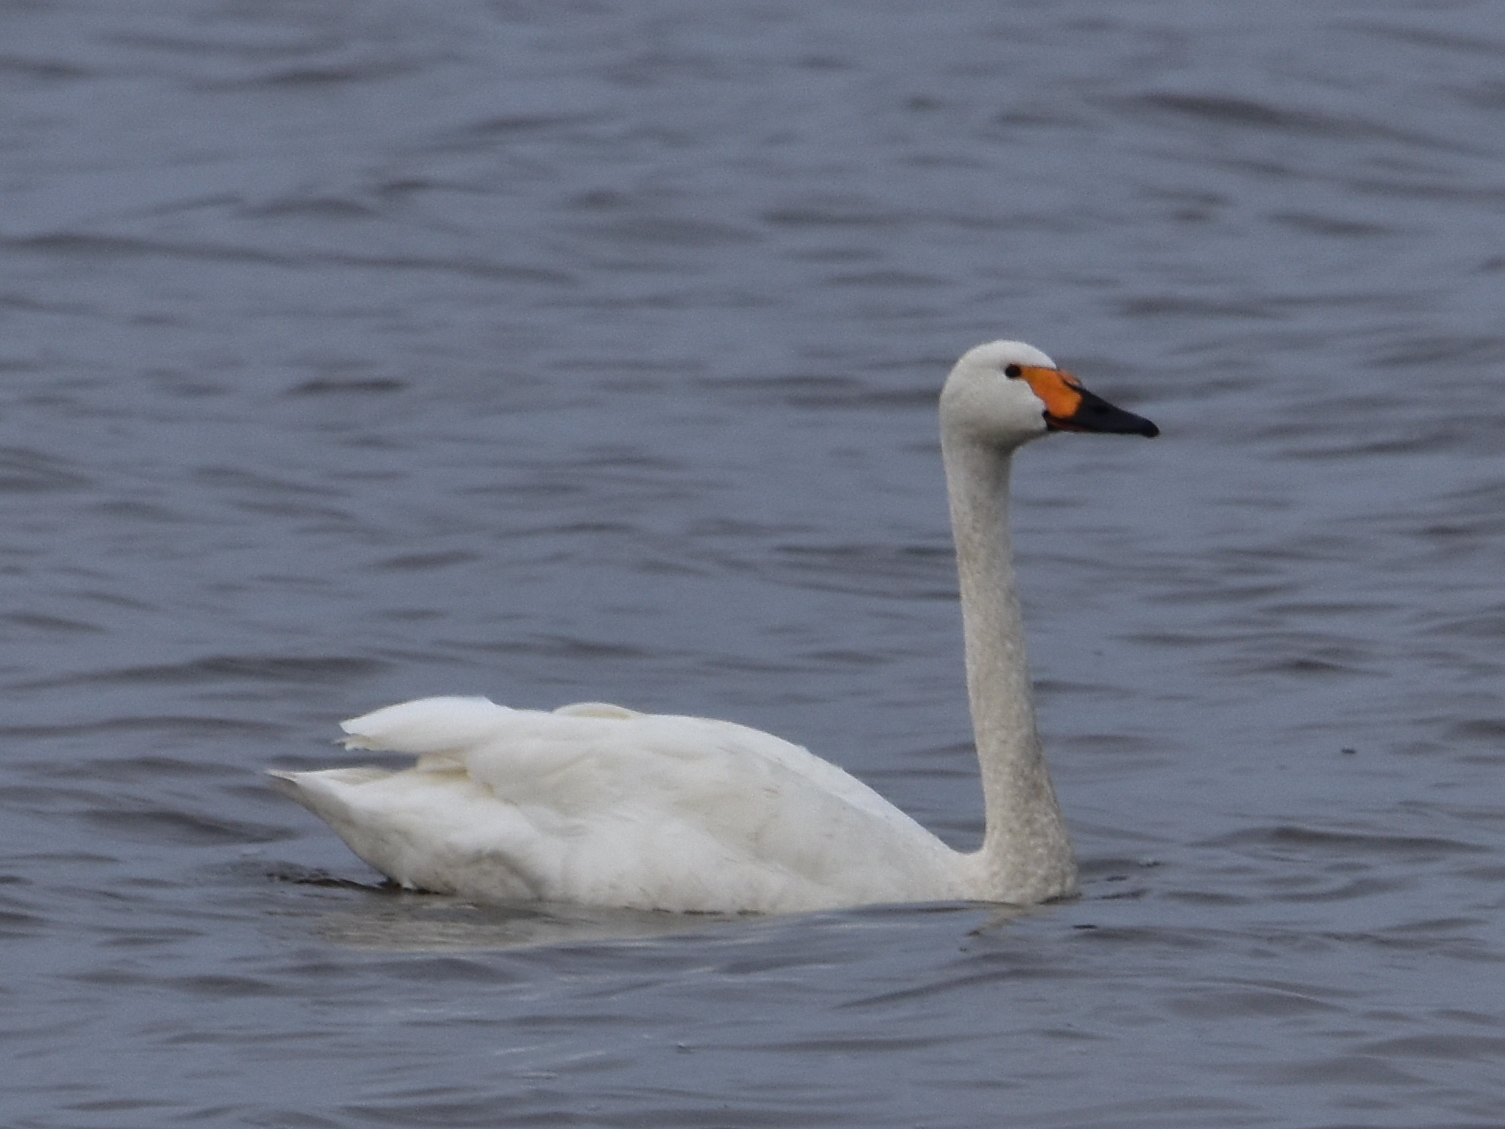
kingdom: Animalia
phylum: Chordata
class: Aves
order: Anseriformes
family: Anatidae
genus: Cygnus
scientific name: Cygnus columbianus
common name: Tundra swan
